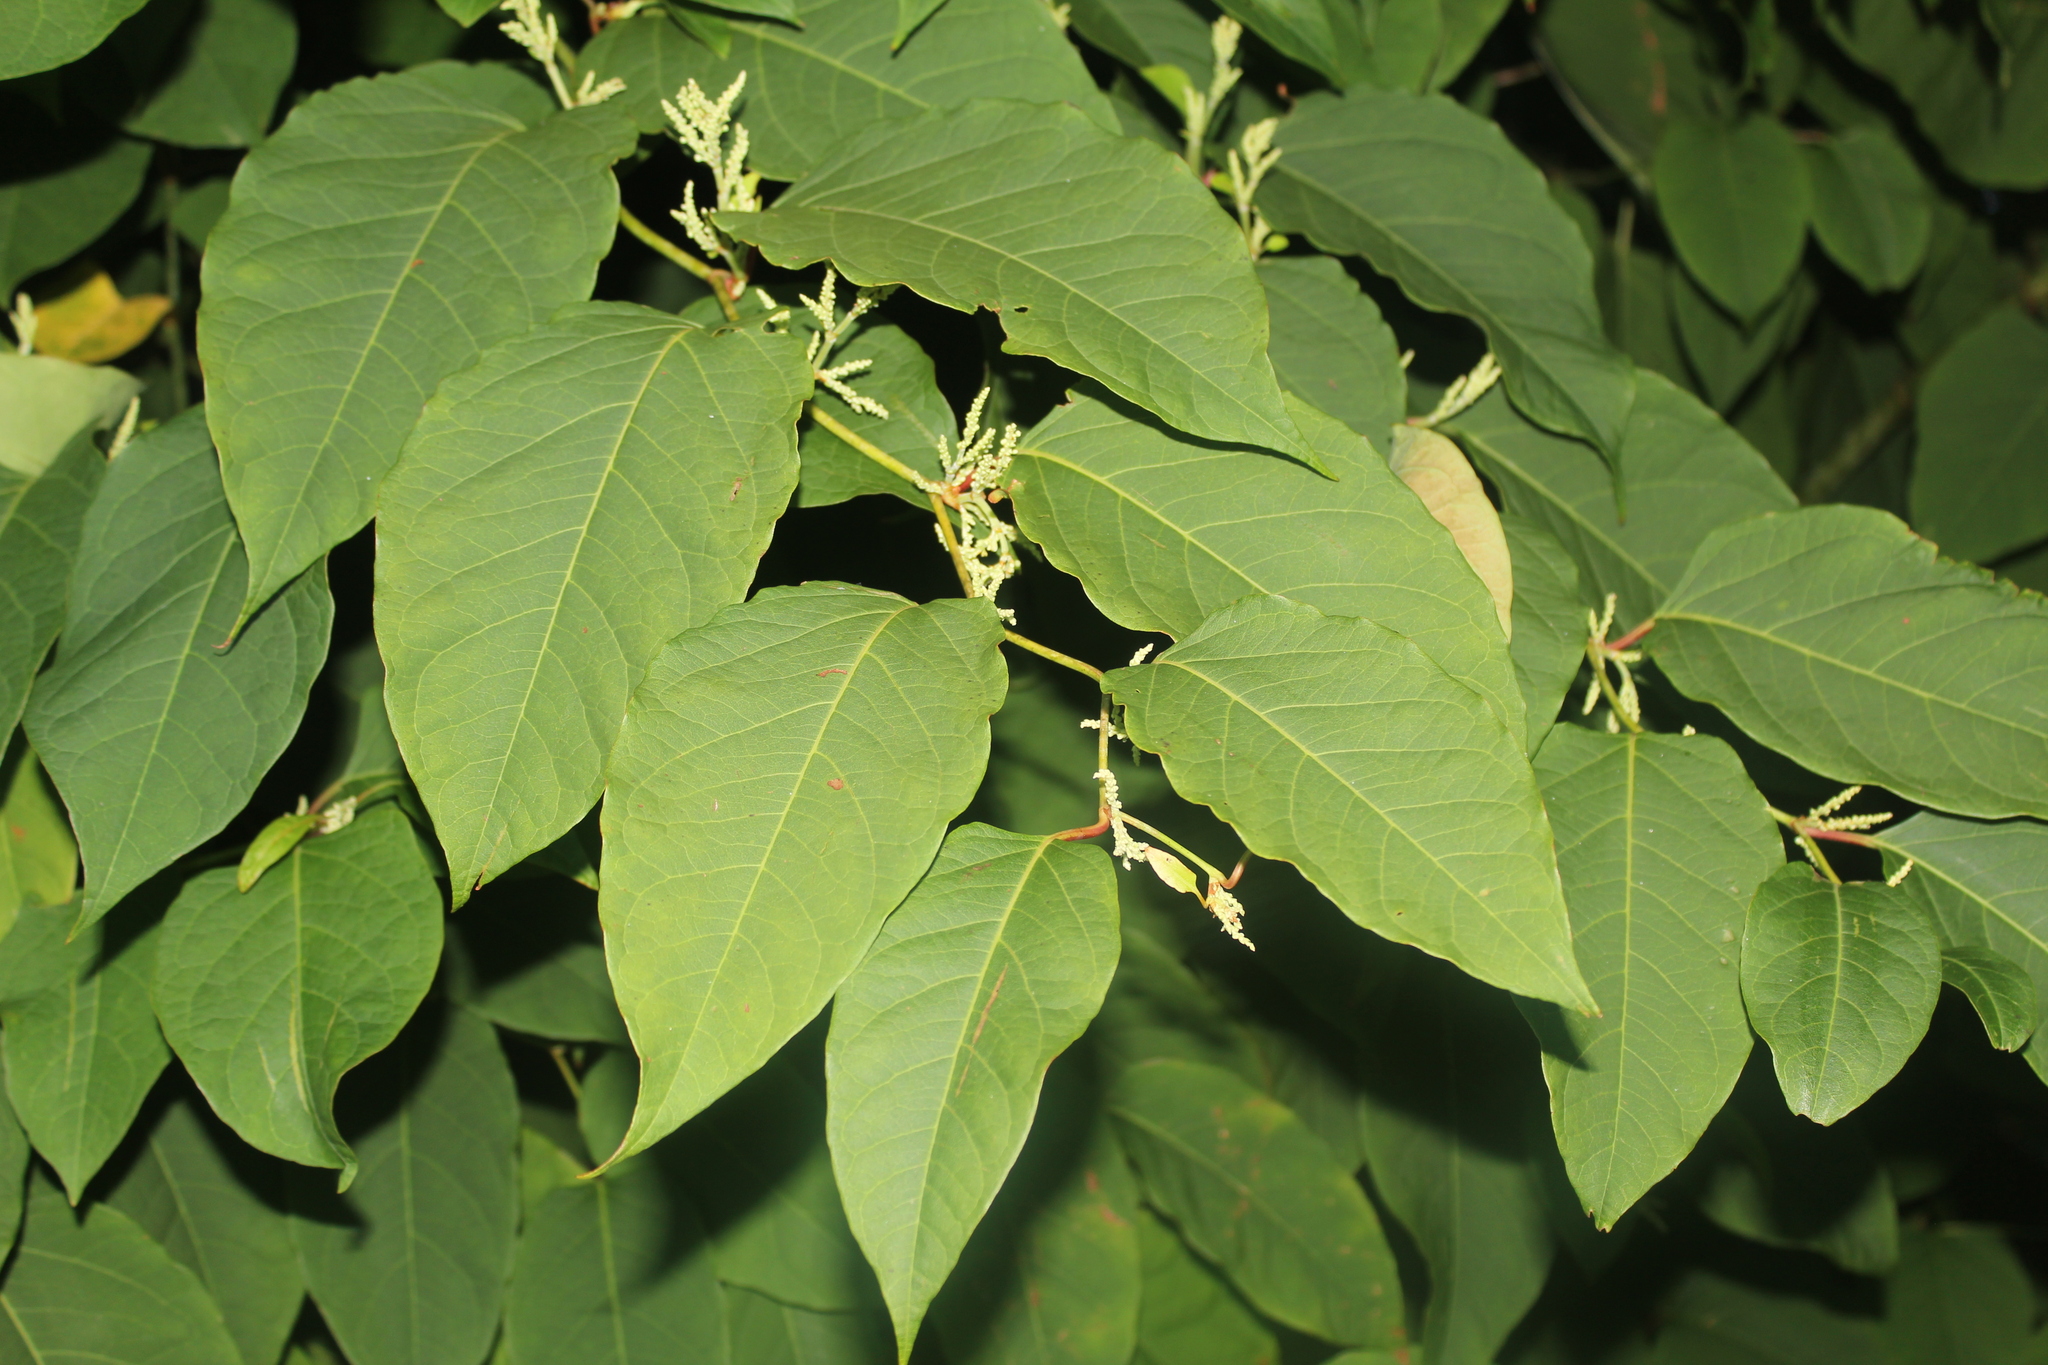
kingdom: Plantae
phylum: Tracheophyta
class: Magnoliopsida
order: Caryophyllales
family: Polygonaceae
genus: Reynoutria
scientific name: Reynoutria japonica
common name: Japanese knotweed
